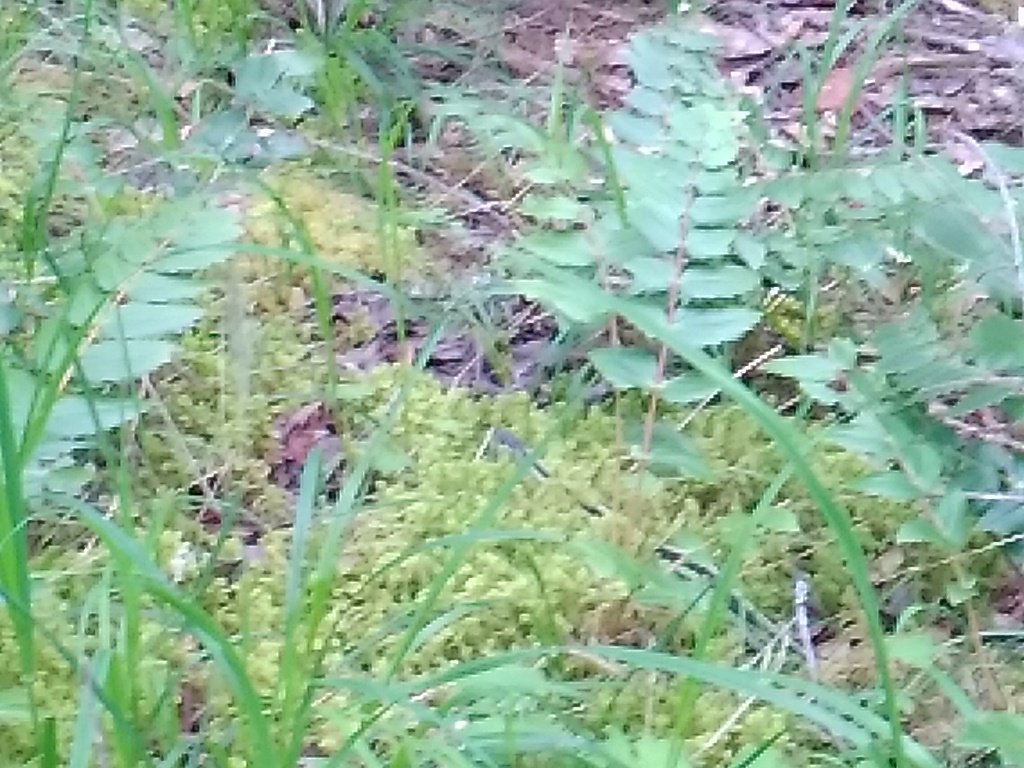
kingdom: Animalia
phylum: Chordata
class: Squamata
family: Colubridae
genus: Thamnophis
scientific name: Thamnophis sirtalis
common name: Common garter snake
